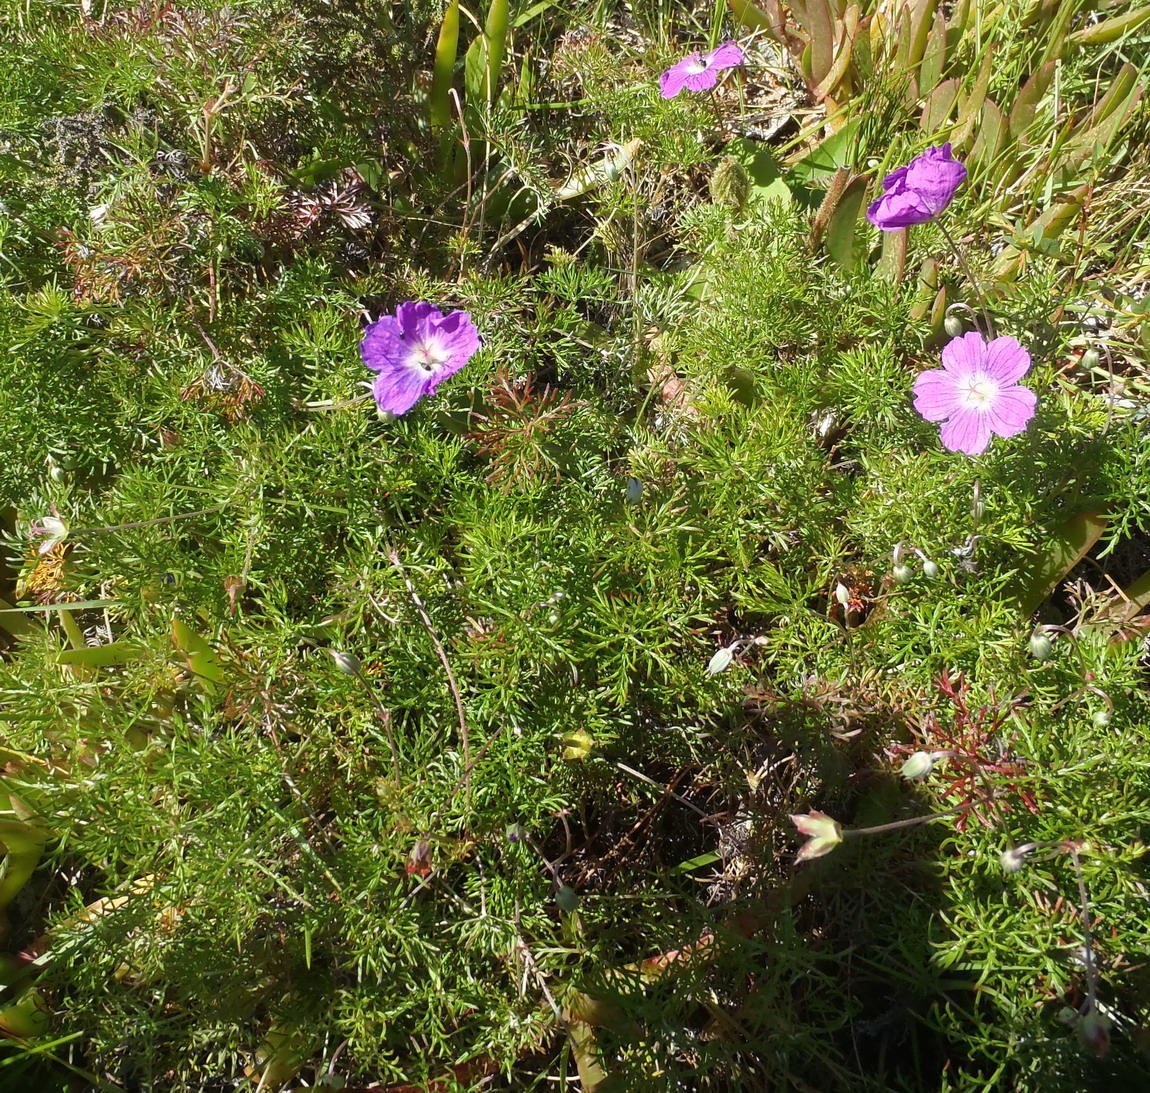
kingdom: Plantae
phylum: Tracheophyta
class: Magnoliopsida
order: Geraniales
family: Geraniaceae
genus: Geranium
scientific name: Geranium incanum
